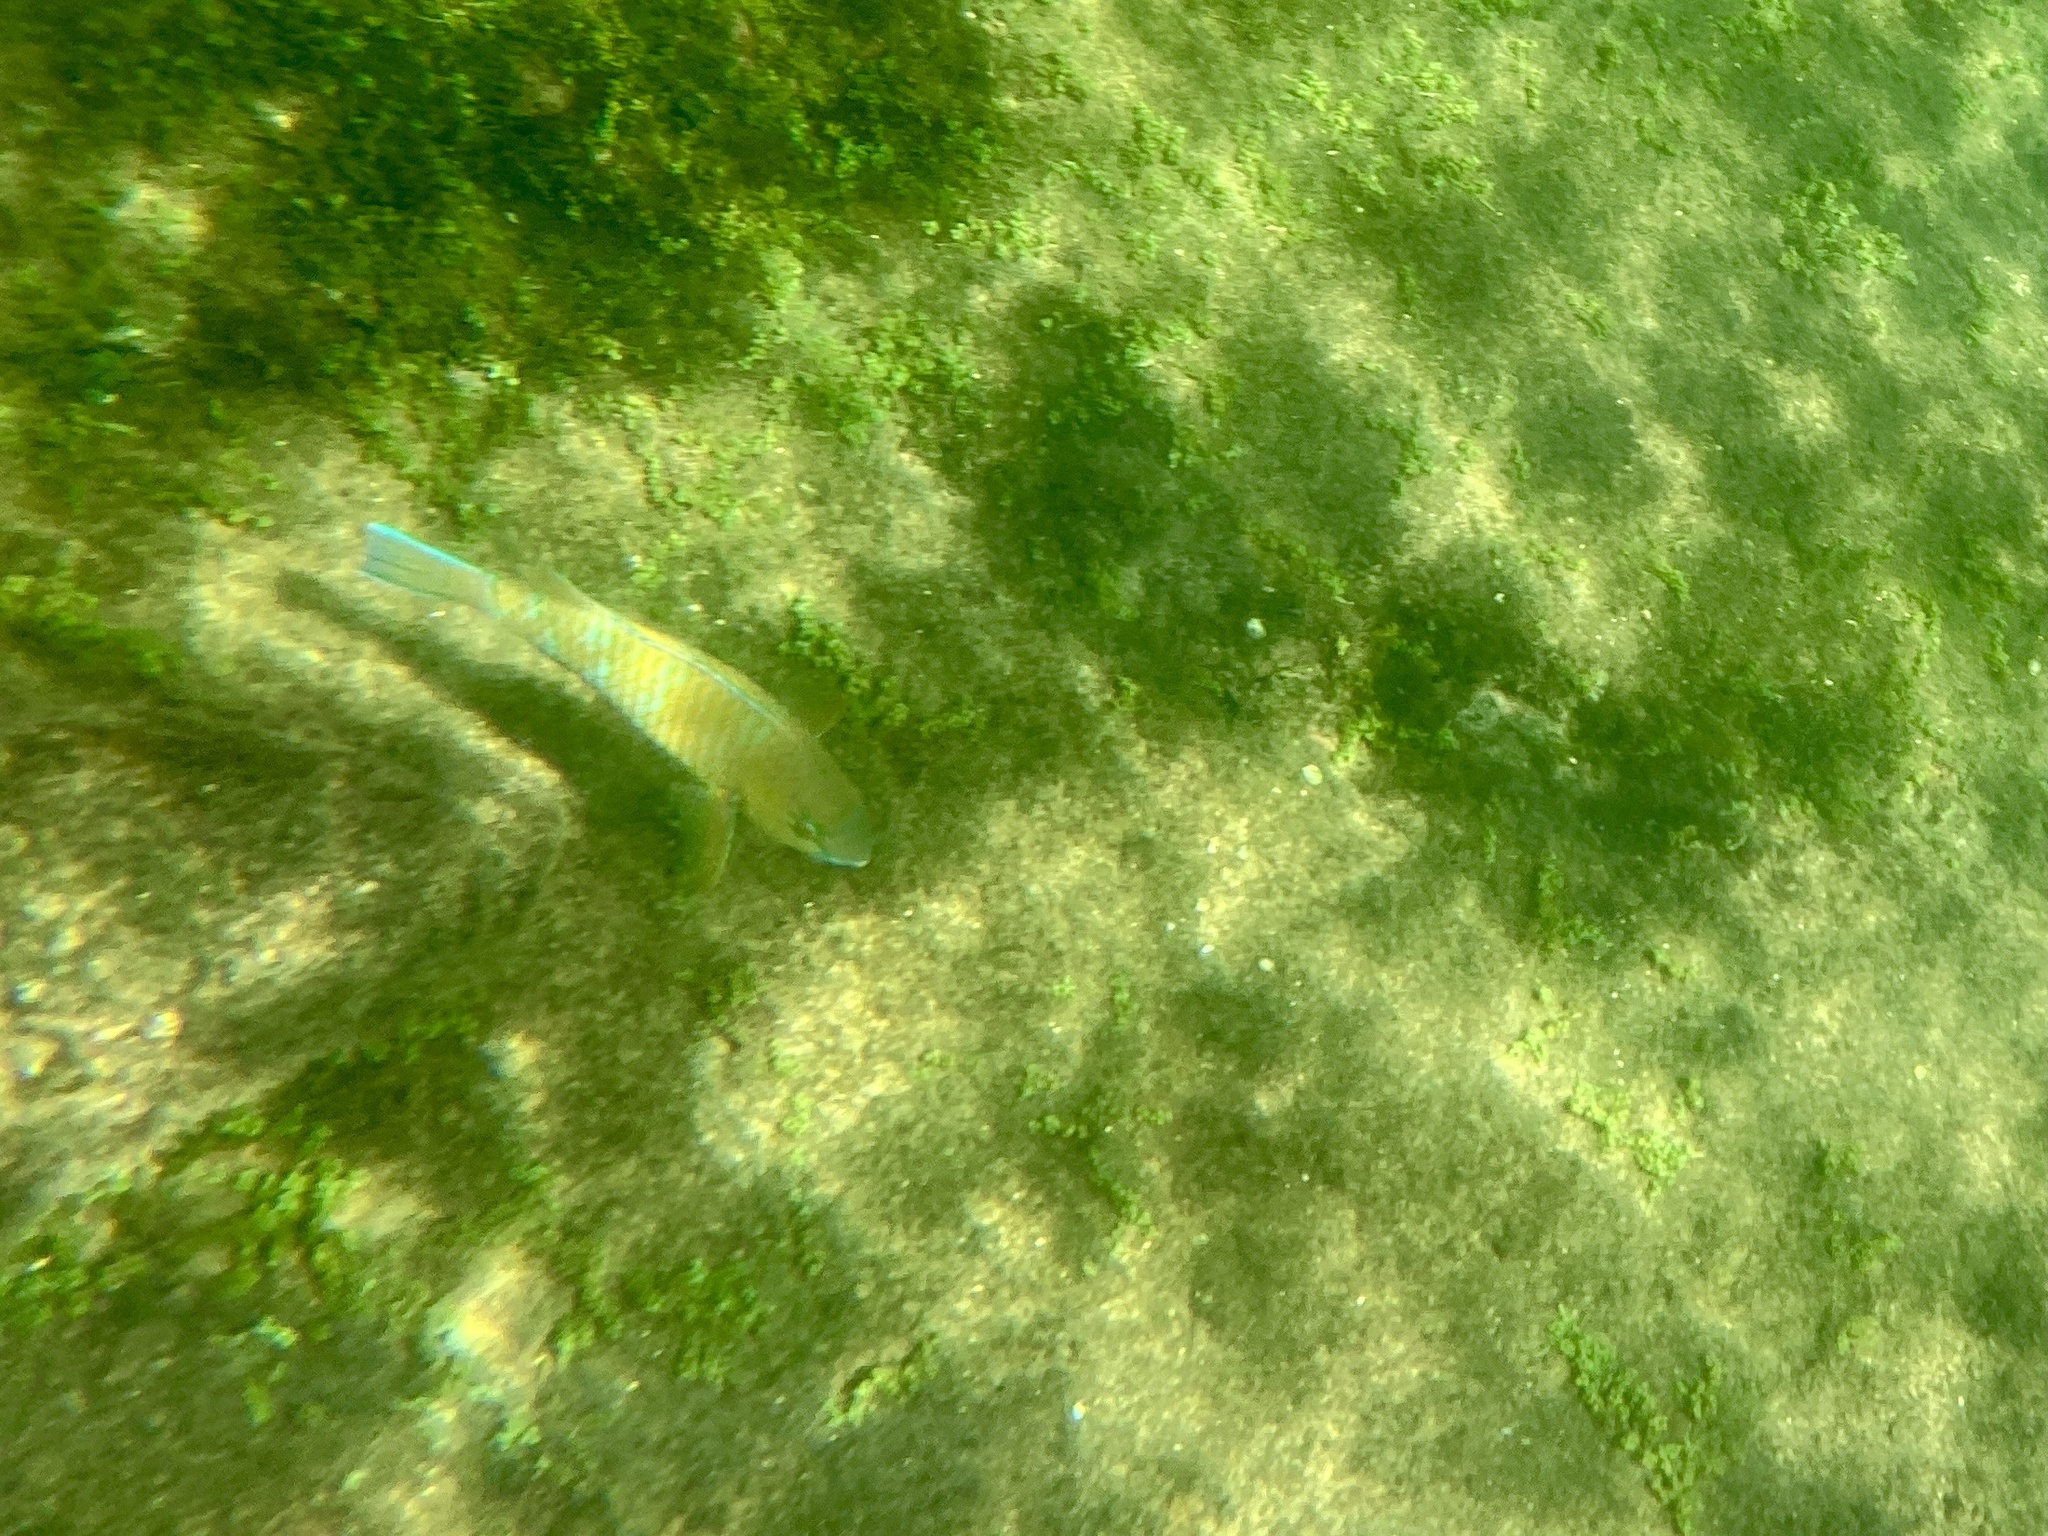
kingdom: Animalia
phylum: Chordata
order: Perciformes
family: Scaridae
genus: Scarus
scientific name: Scarus ghobban
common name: Blue-barred parrotfish
